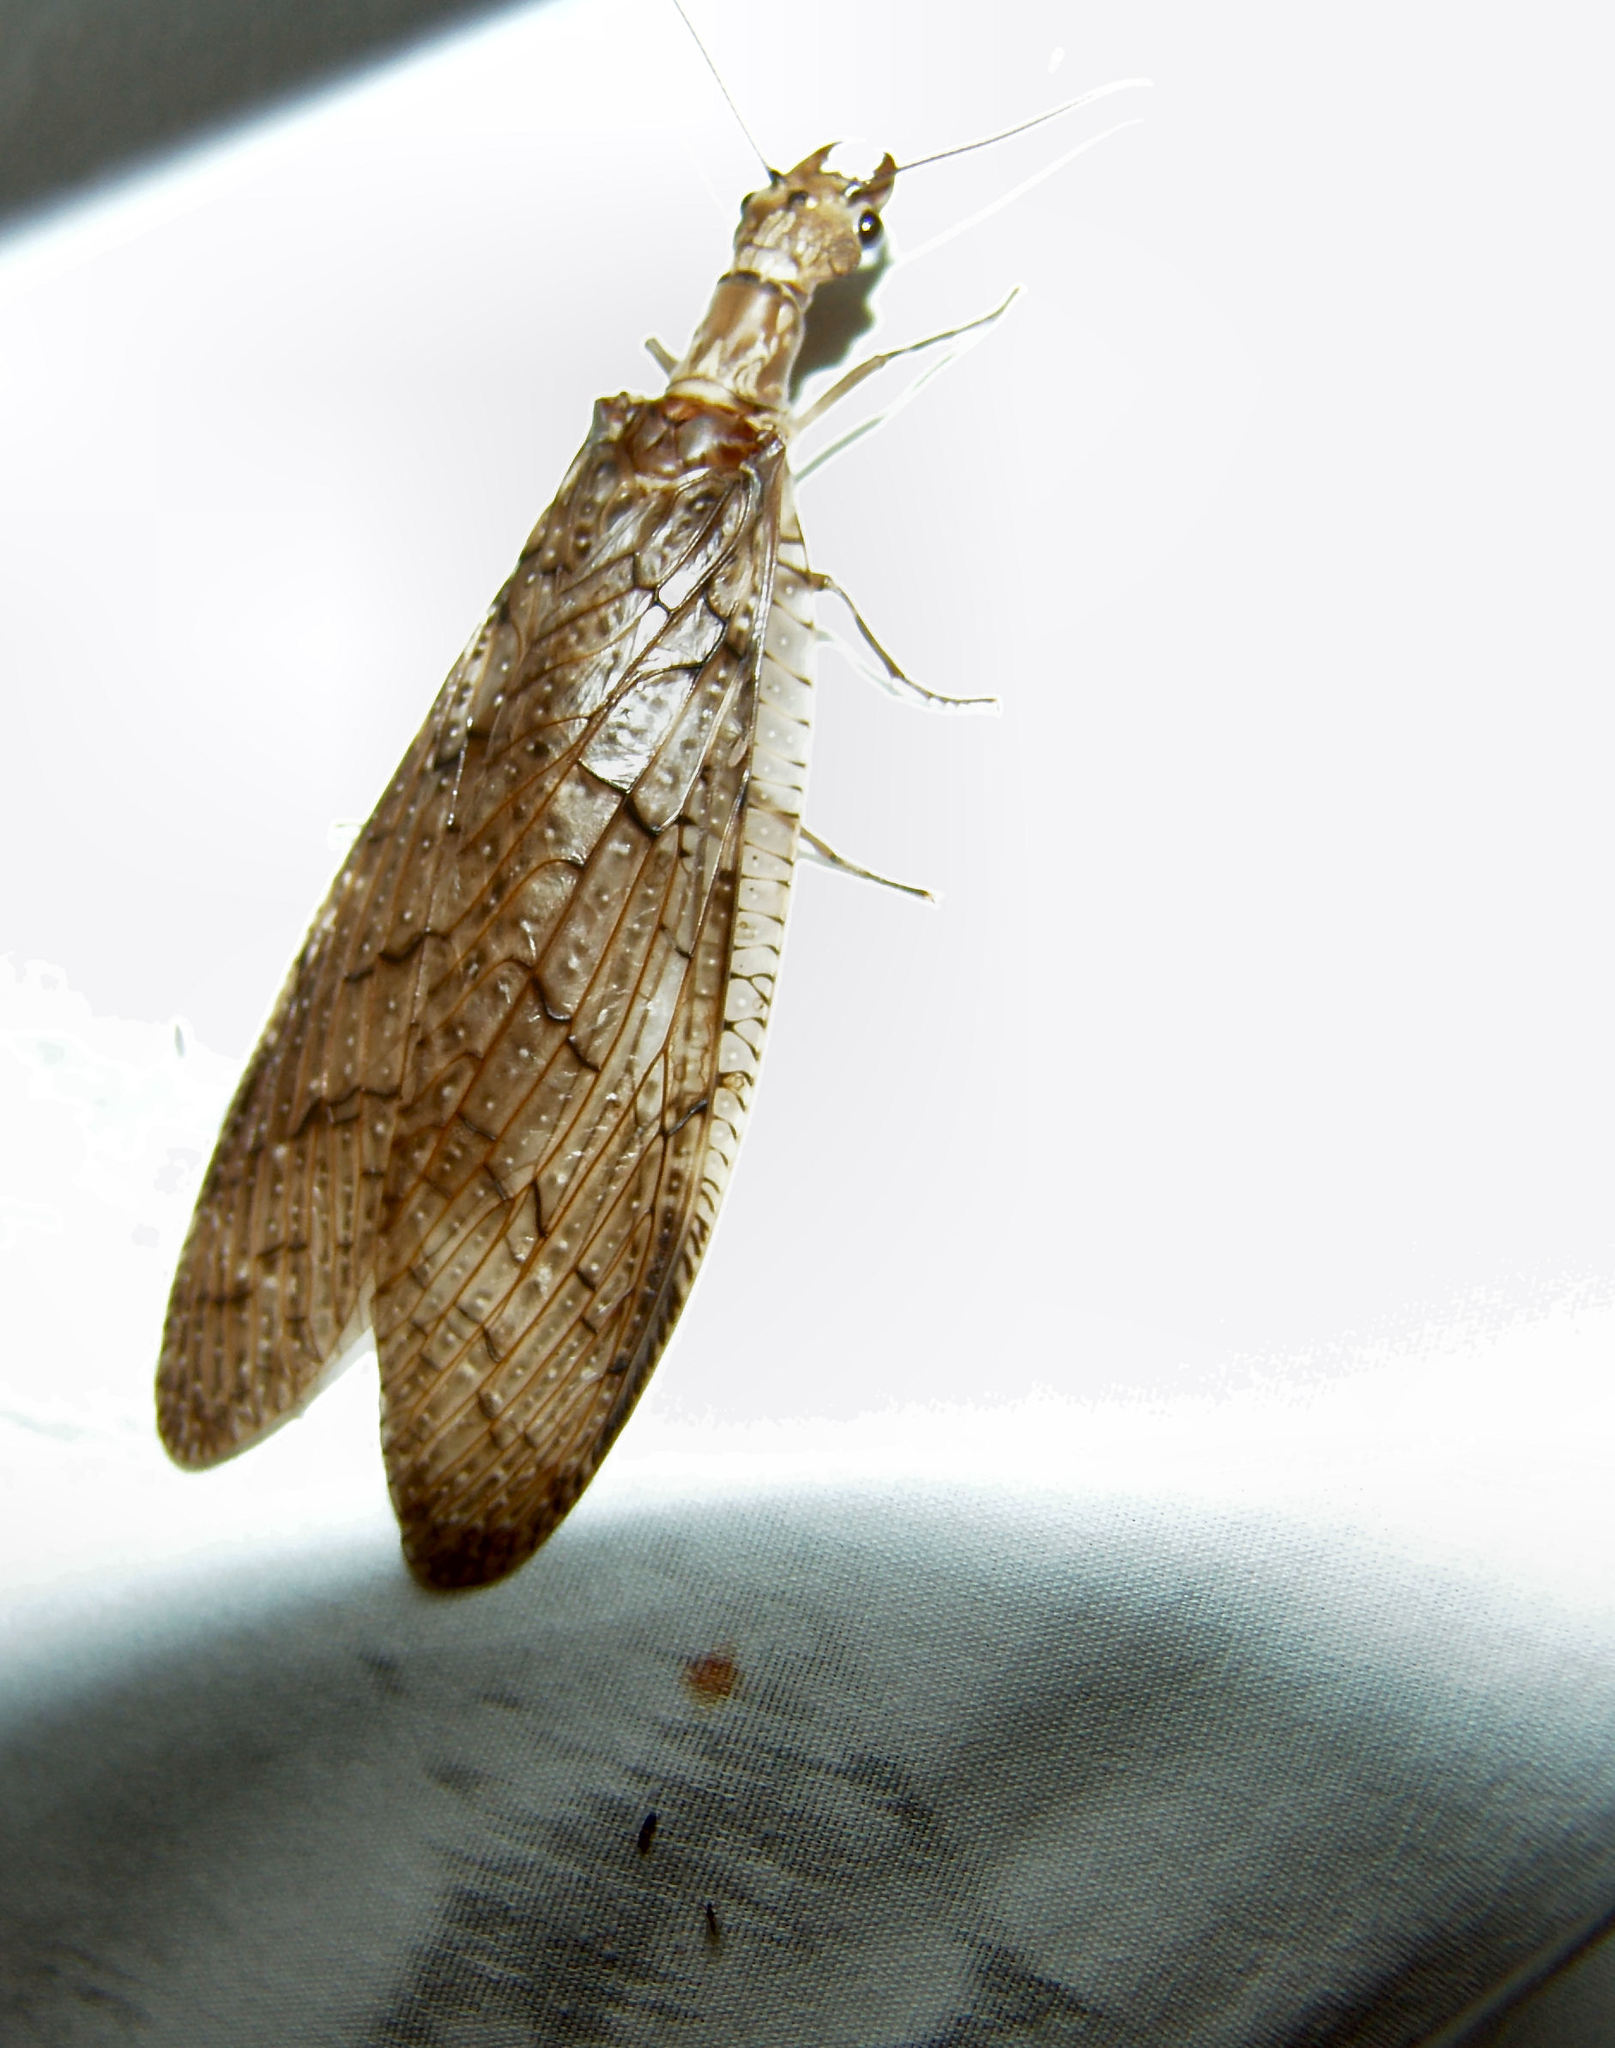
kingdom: Animalia
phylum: Arthropoda
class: Insecta
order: Megaloptera
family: Corydalidae
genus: Corydalus
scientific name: Corydalus texanus
